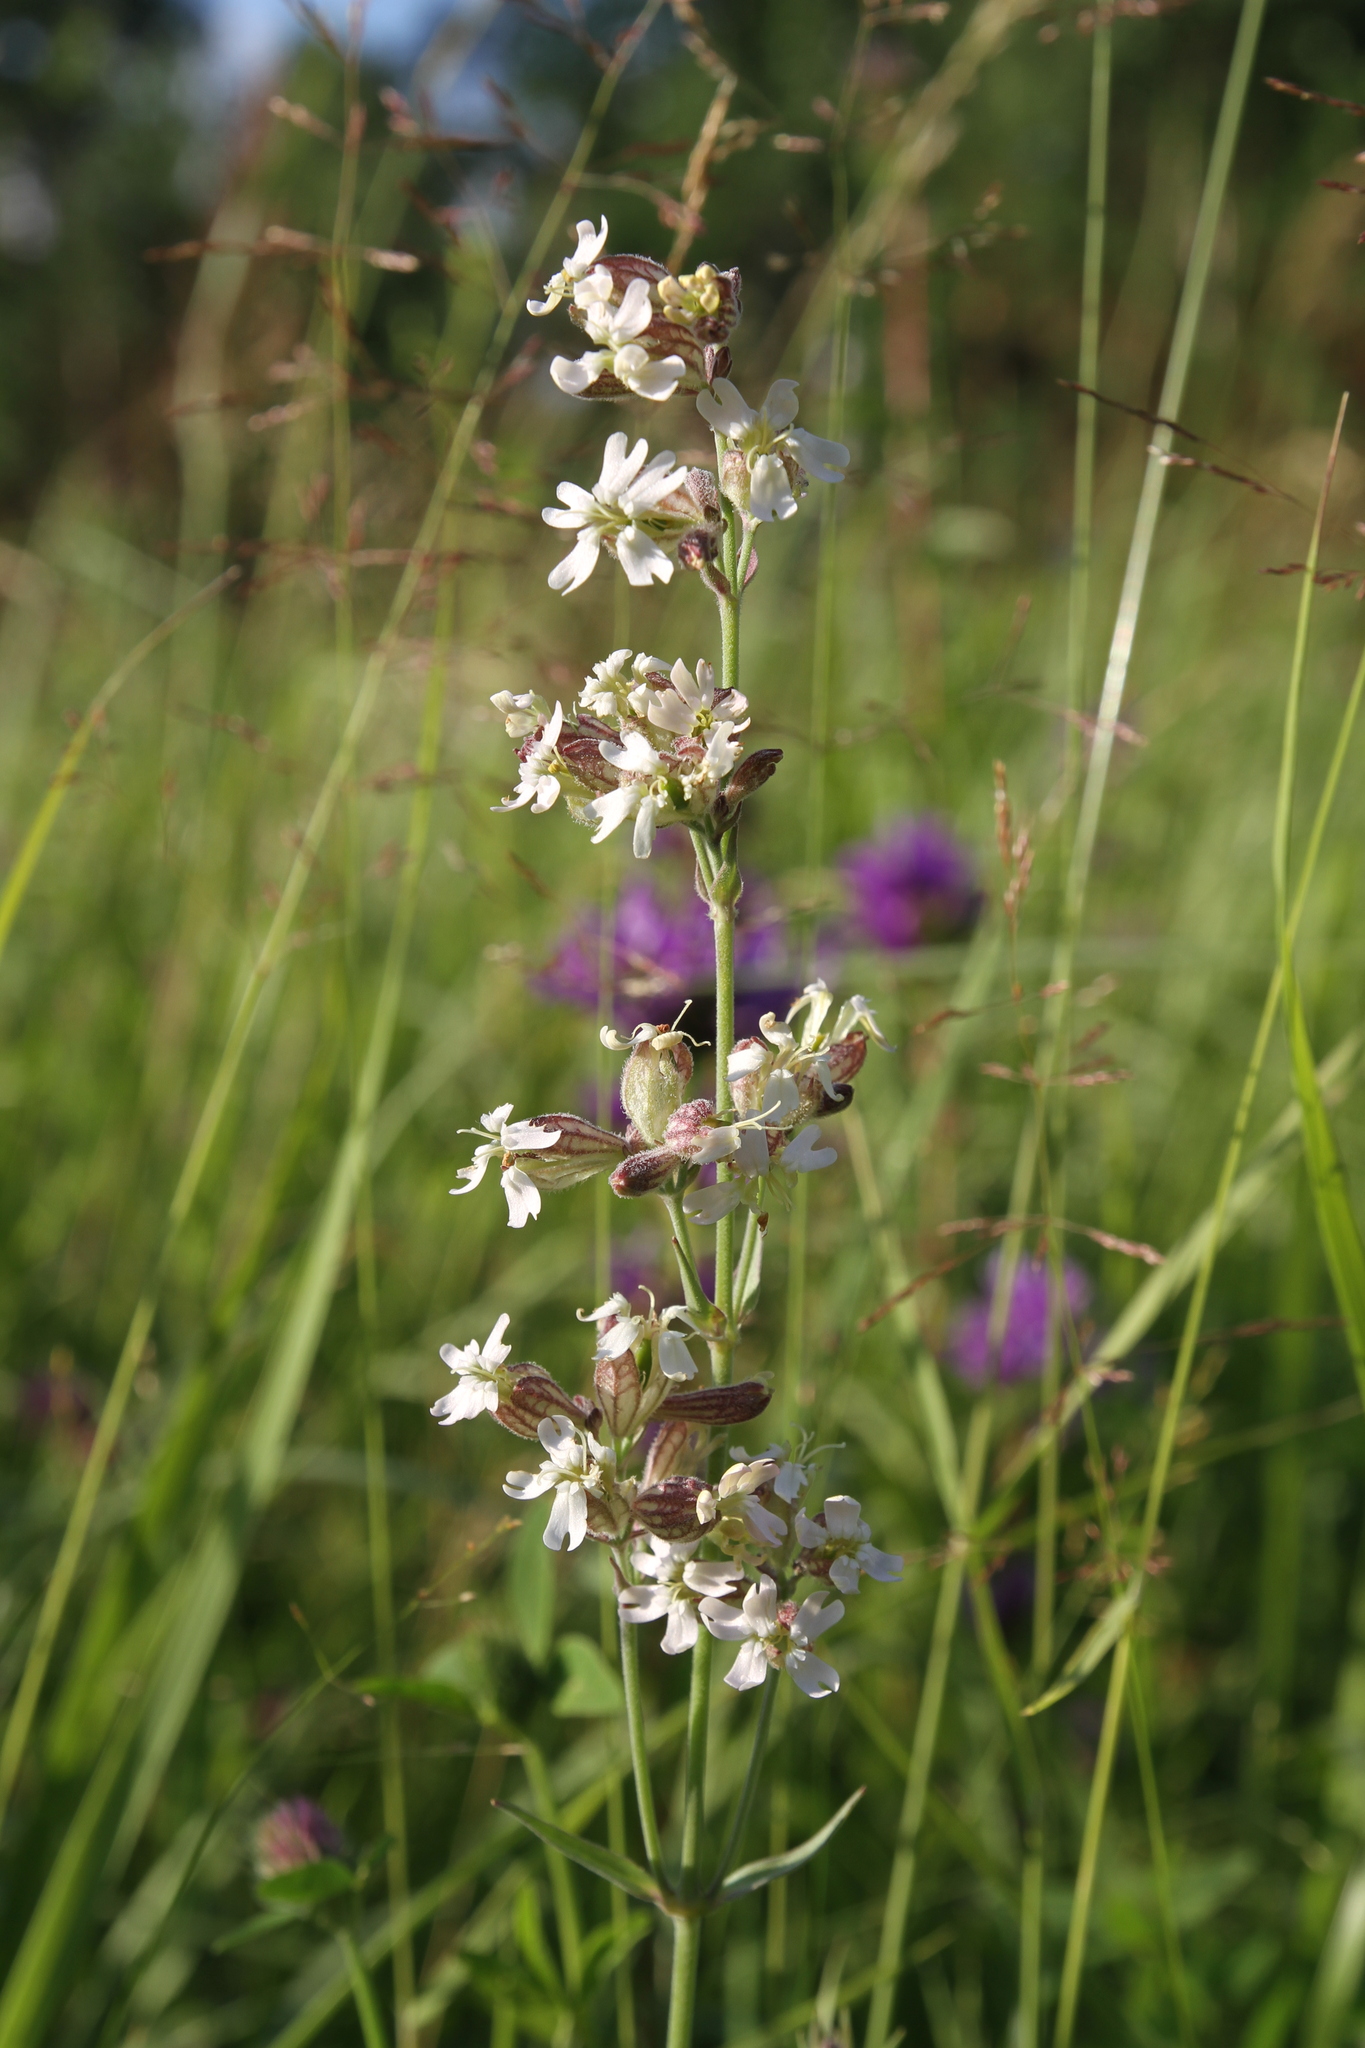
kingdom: Plantae
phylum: Tracheophyta
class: Magnoliopsida
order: Caryophyllales
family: Caryophyllaceae
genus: Silene
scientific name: Silene amoena
